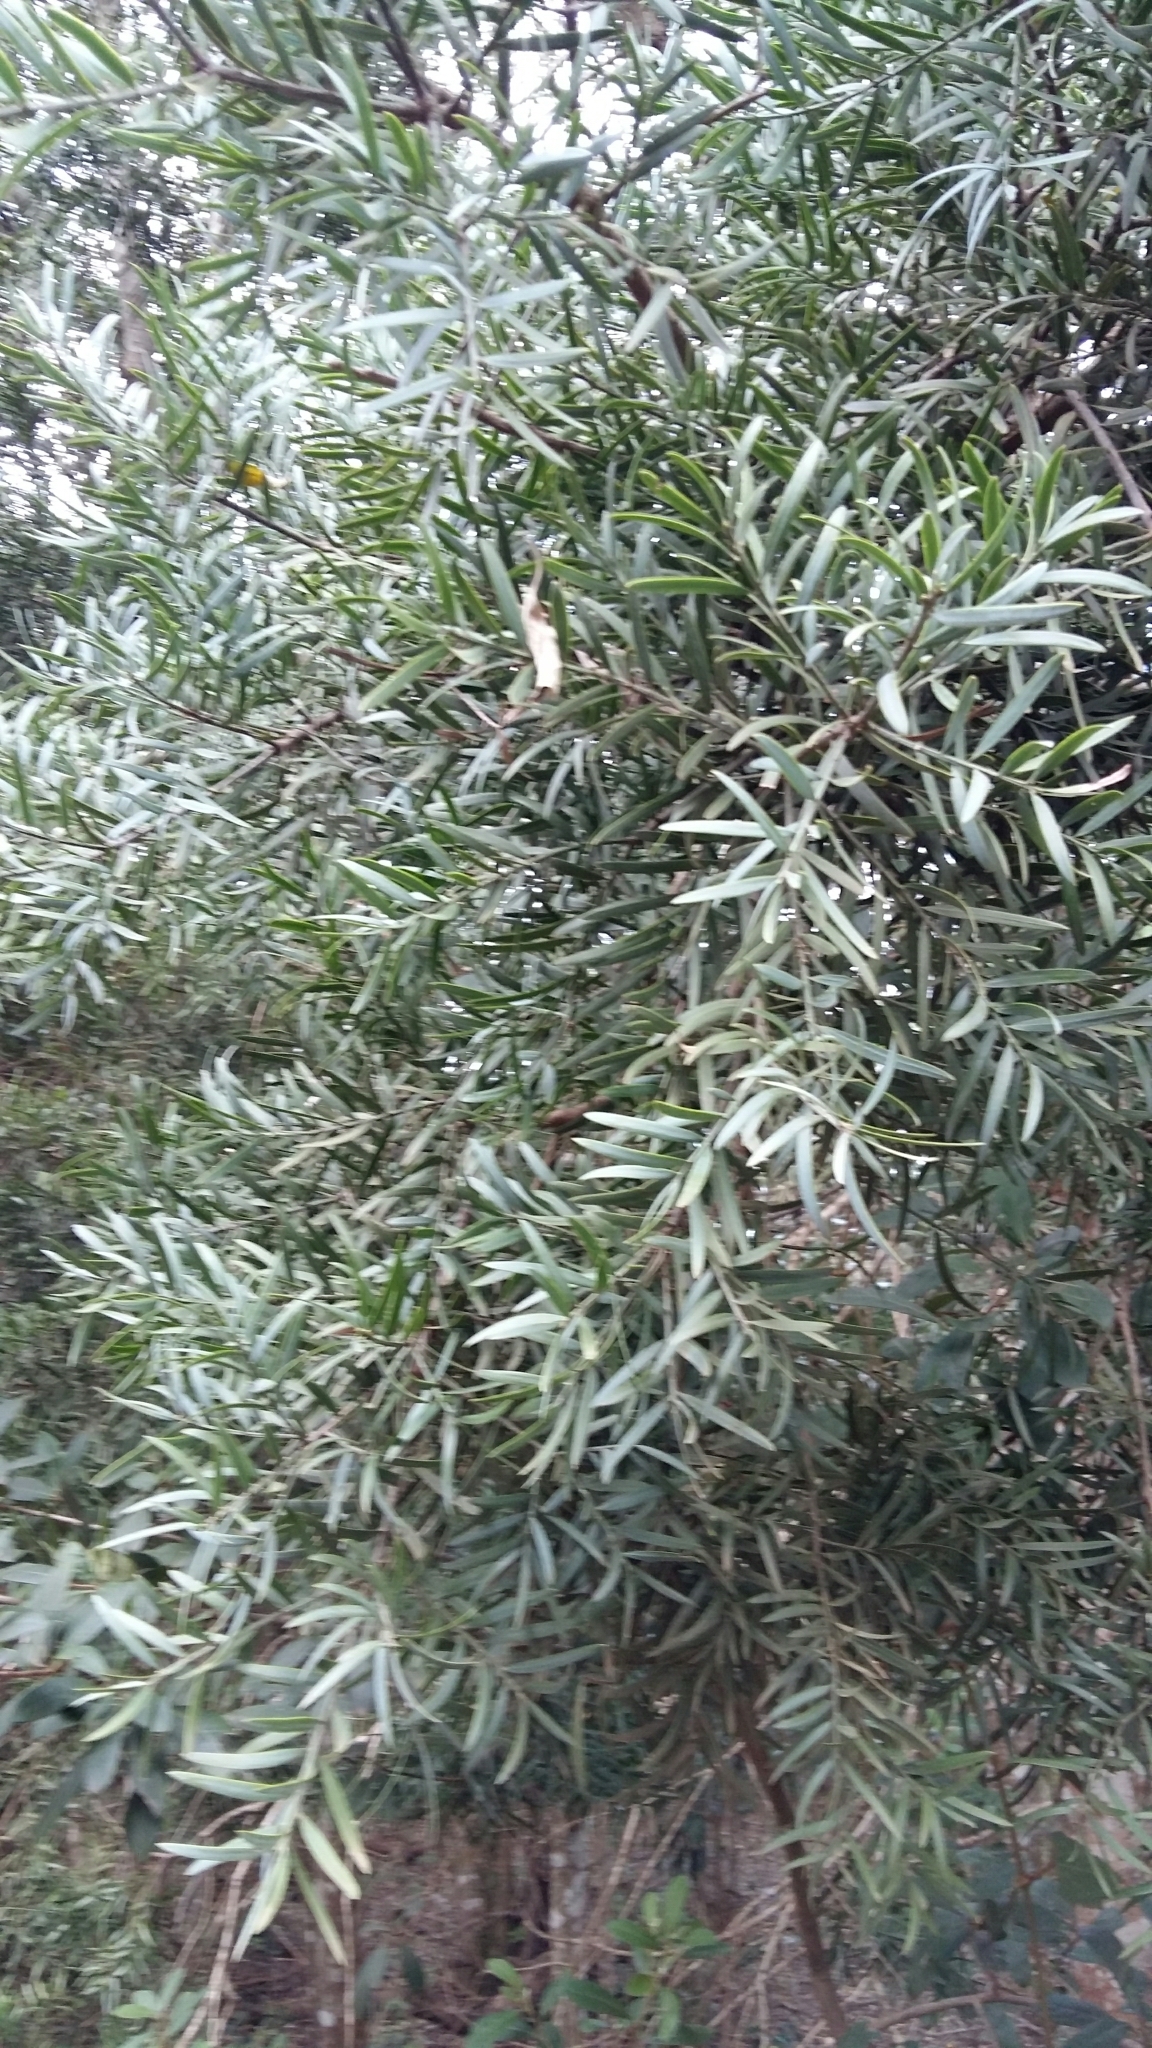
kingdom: Plantae
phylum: Tracheophyta
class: Pinopsida
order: Pinales
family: Podocarpaceae
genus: Afrocarpus
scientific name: Afrocarpus falcatus
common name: Bastard yellowwood
